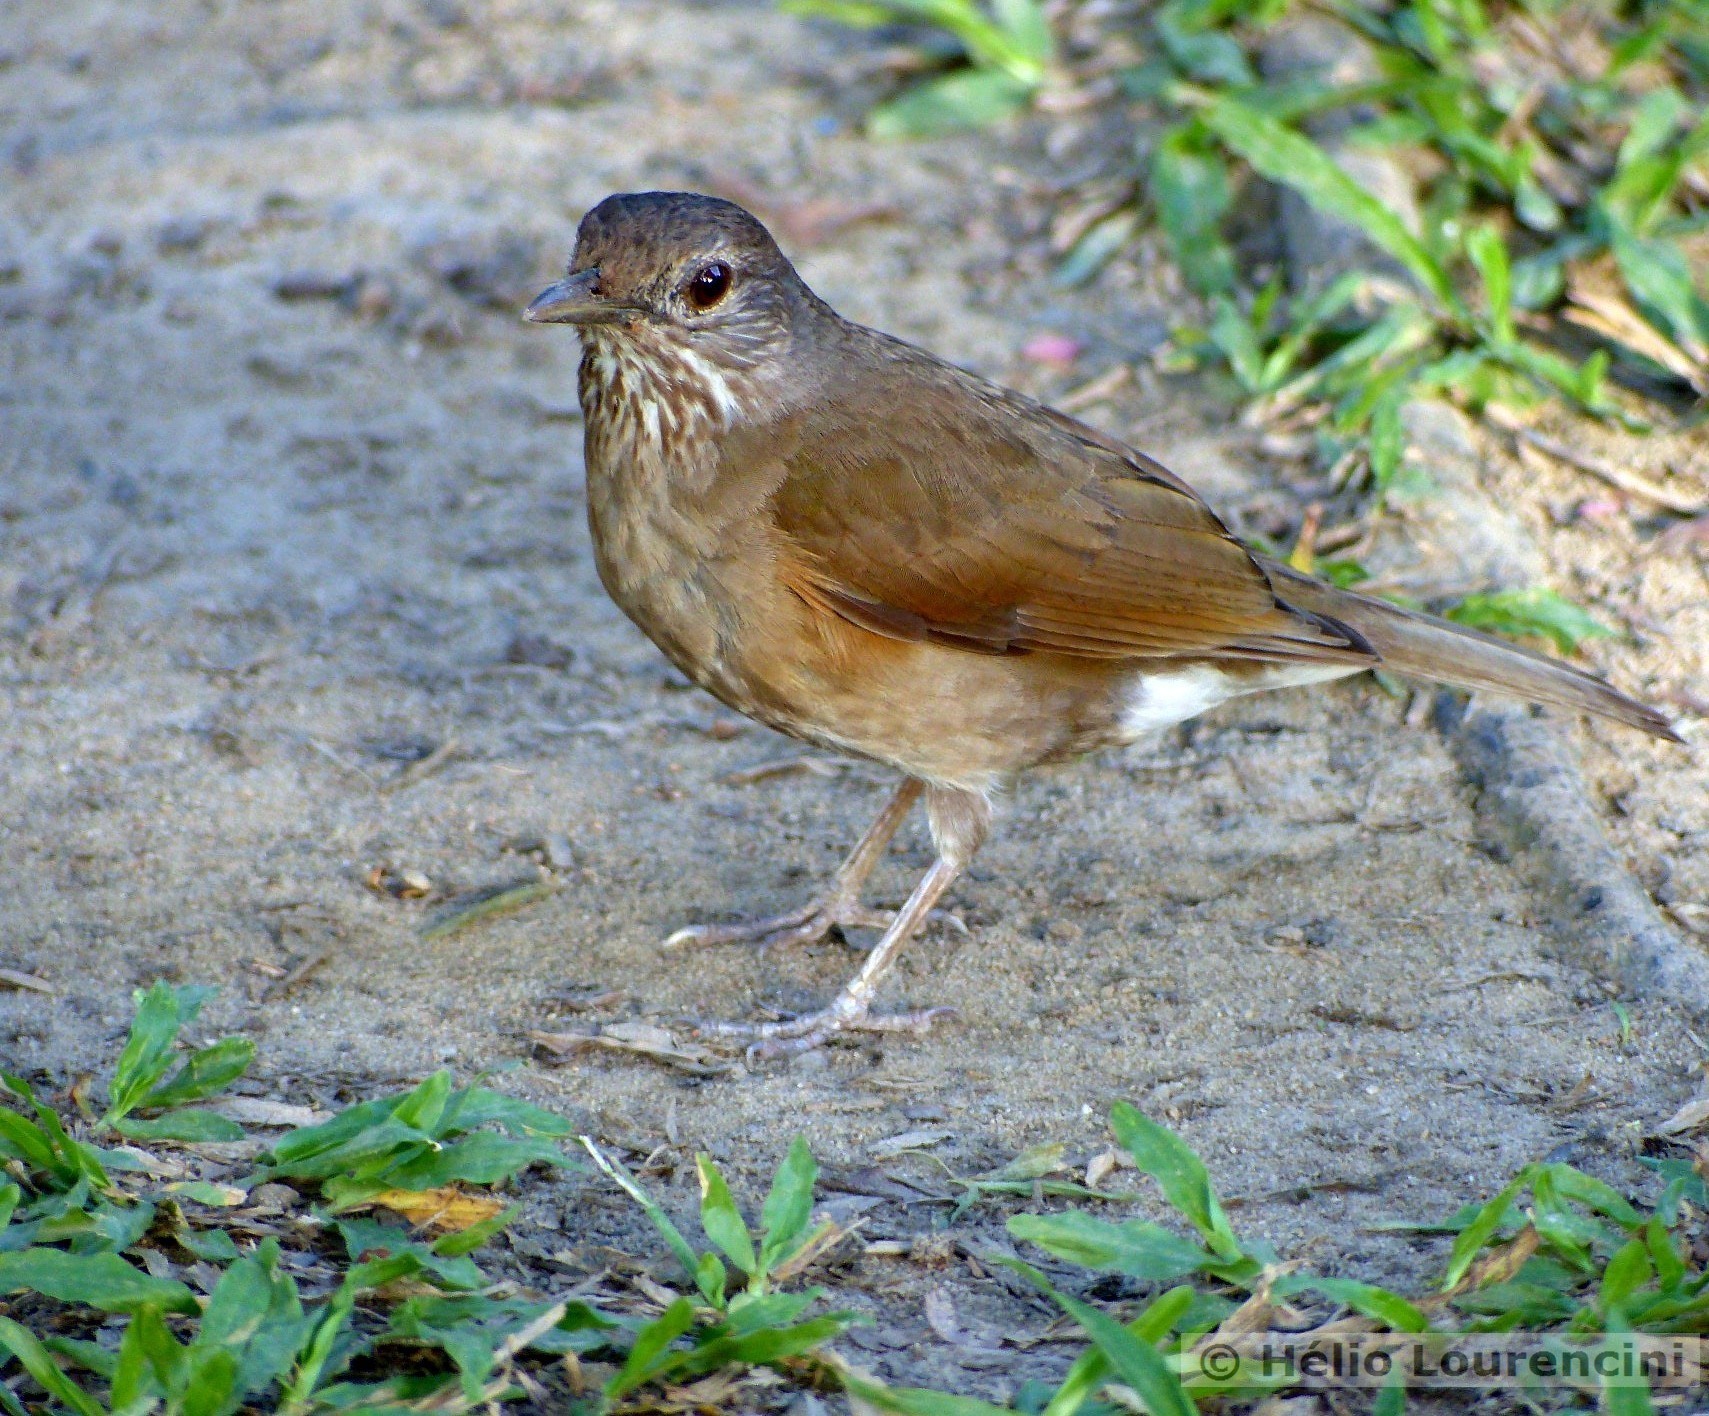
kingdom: Animalia
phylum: Chordata
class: Aves
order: Passeriformes
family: Turdidae
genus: Turdus
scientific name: Turdus leucomelas
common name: Pale-breasted thrush
